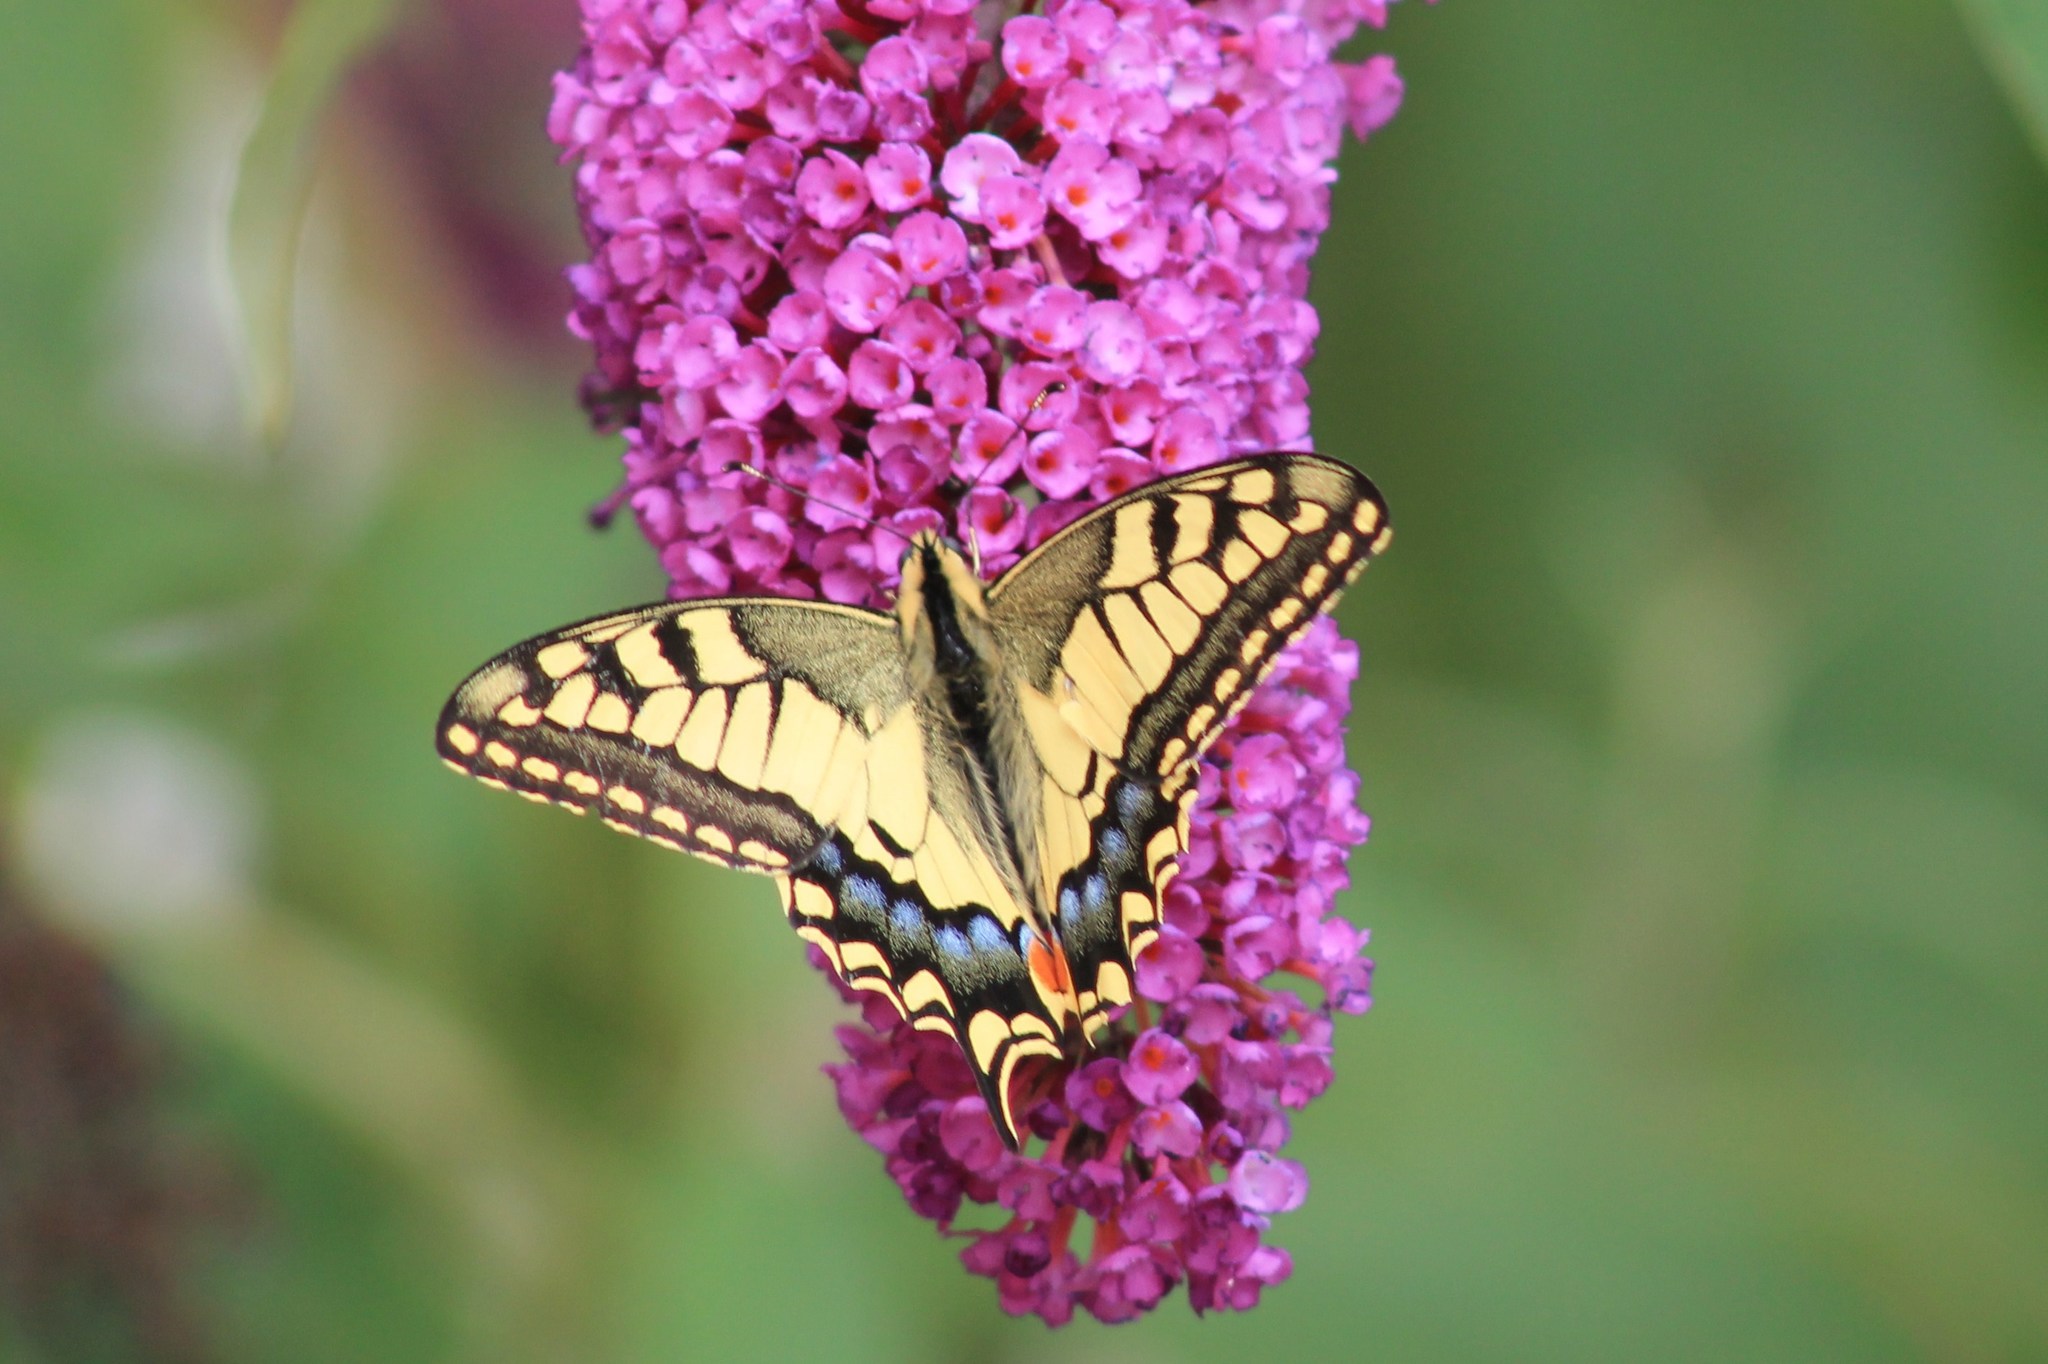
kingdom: Animalia
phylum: Arthropoda
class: Insecta
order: Lepidoptera
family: Papilionidae
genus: Papilio
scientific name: Papilio machaon
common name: Swallowtail
